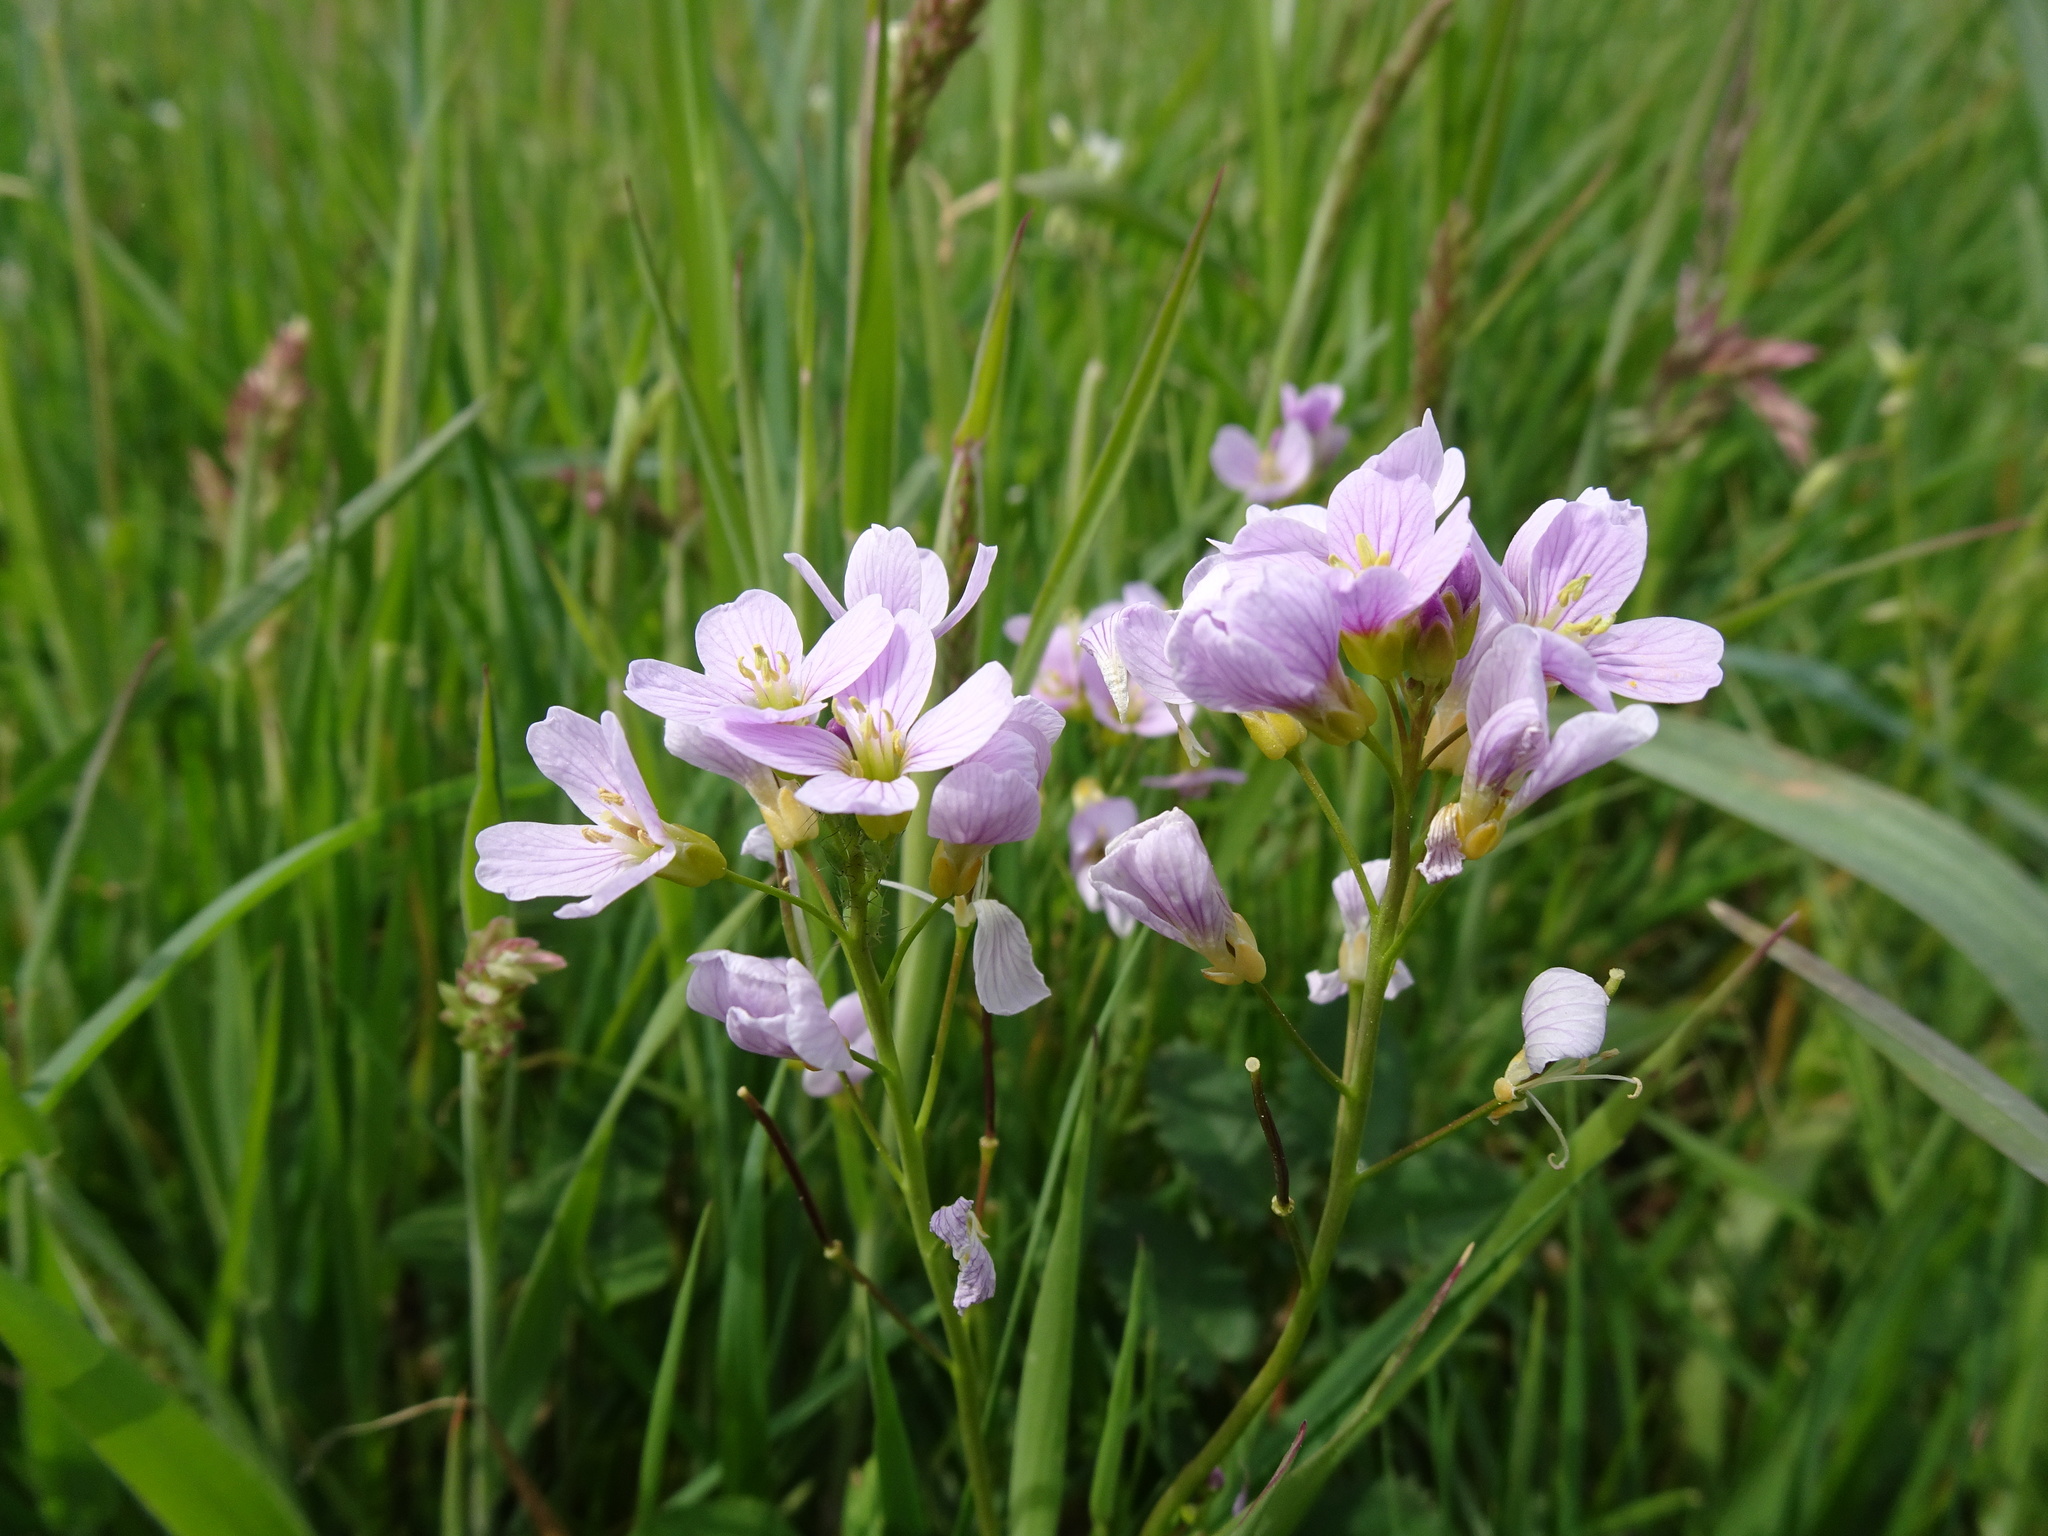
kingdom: Plantae
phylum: Tracheophyta
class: Magnoliopsida
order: Brassicales
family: Brassicaceae
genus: Cardamine
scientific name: Cardamine pratensis
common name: Cuckoo flower
